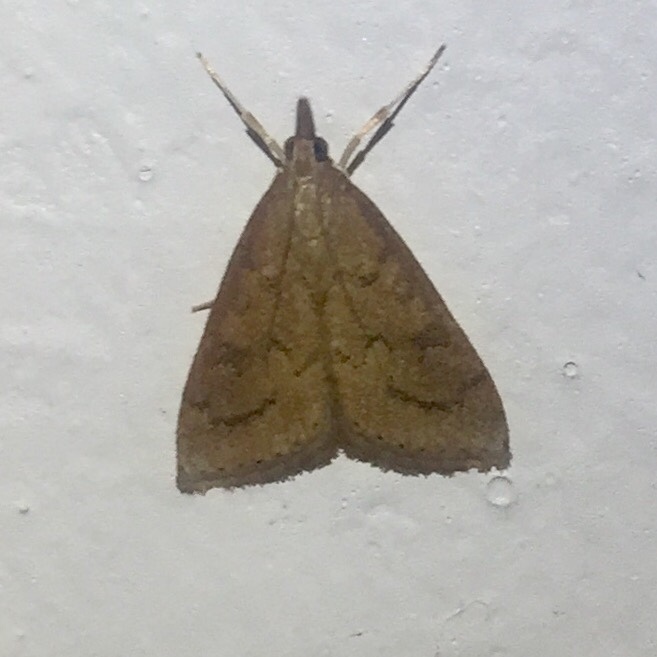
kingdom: Animalia
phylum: Arthropoda
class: Insecta
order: Lepidoptera
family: Crambidae
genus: Udea
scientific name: Udea rubigalis
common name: Celery leaftier moth
